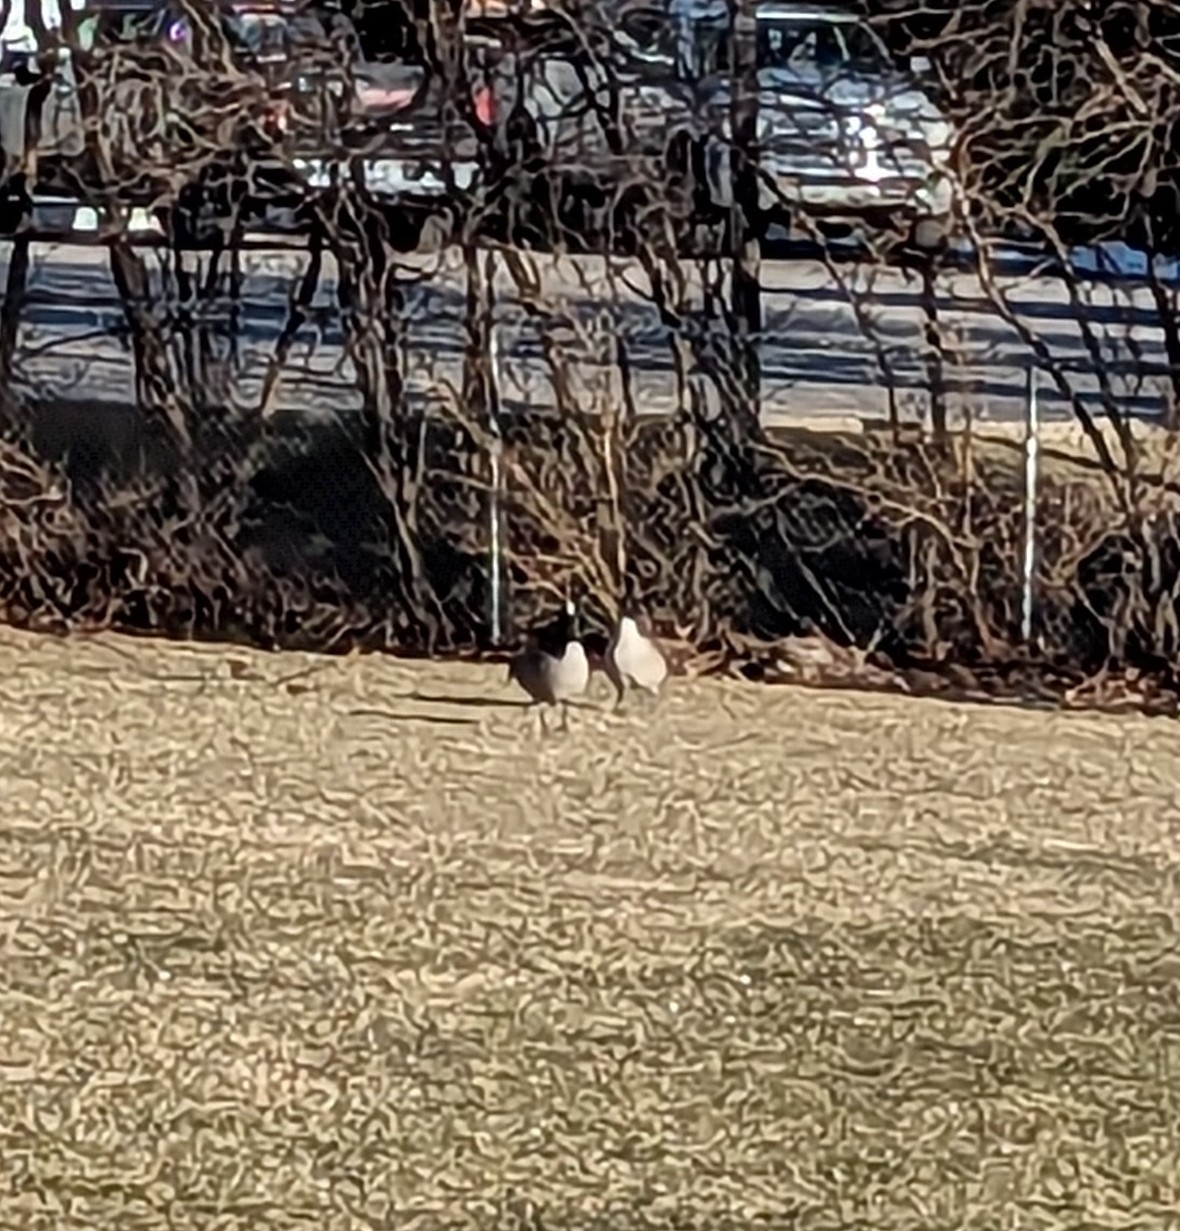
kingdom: Animalia
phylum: Chordata
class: Aves
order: Anseriformes
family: Anatidae
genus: Branta
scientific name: Branta canadensis
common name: Canada goose
